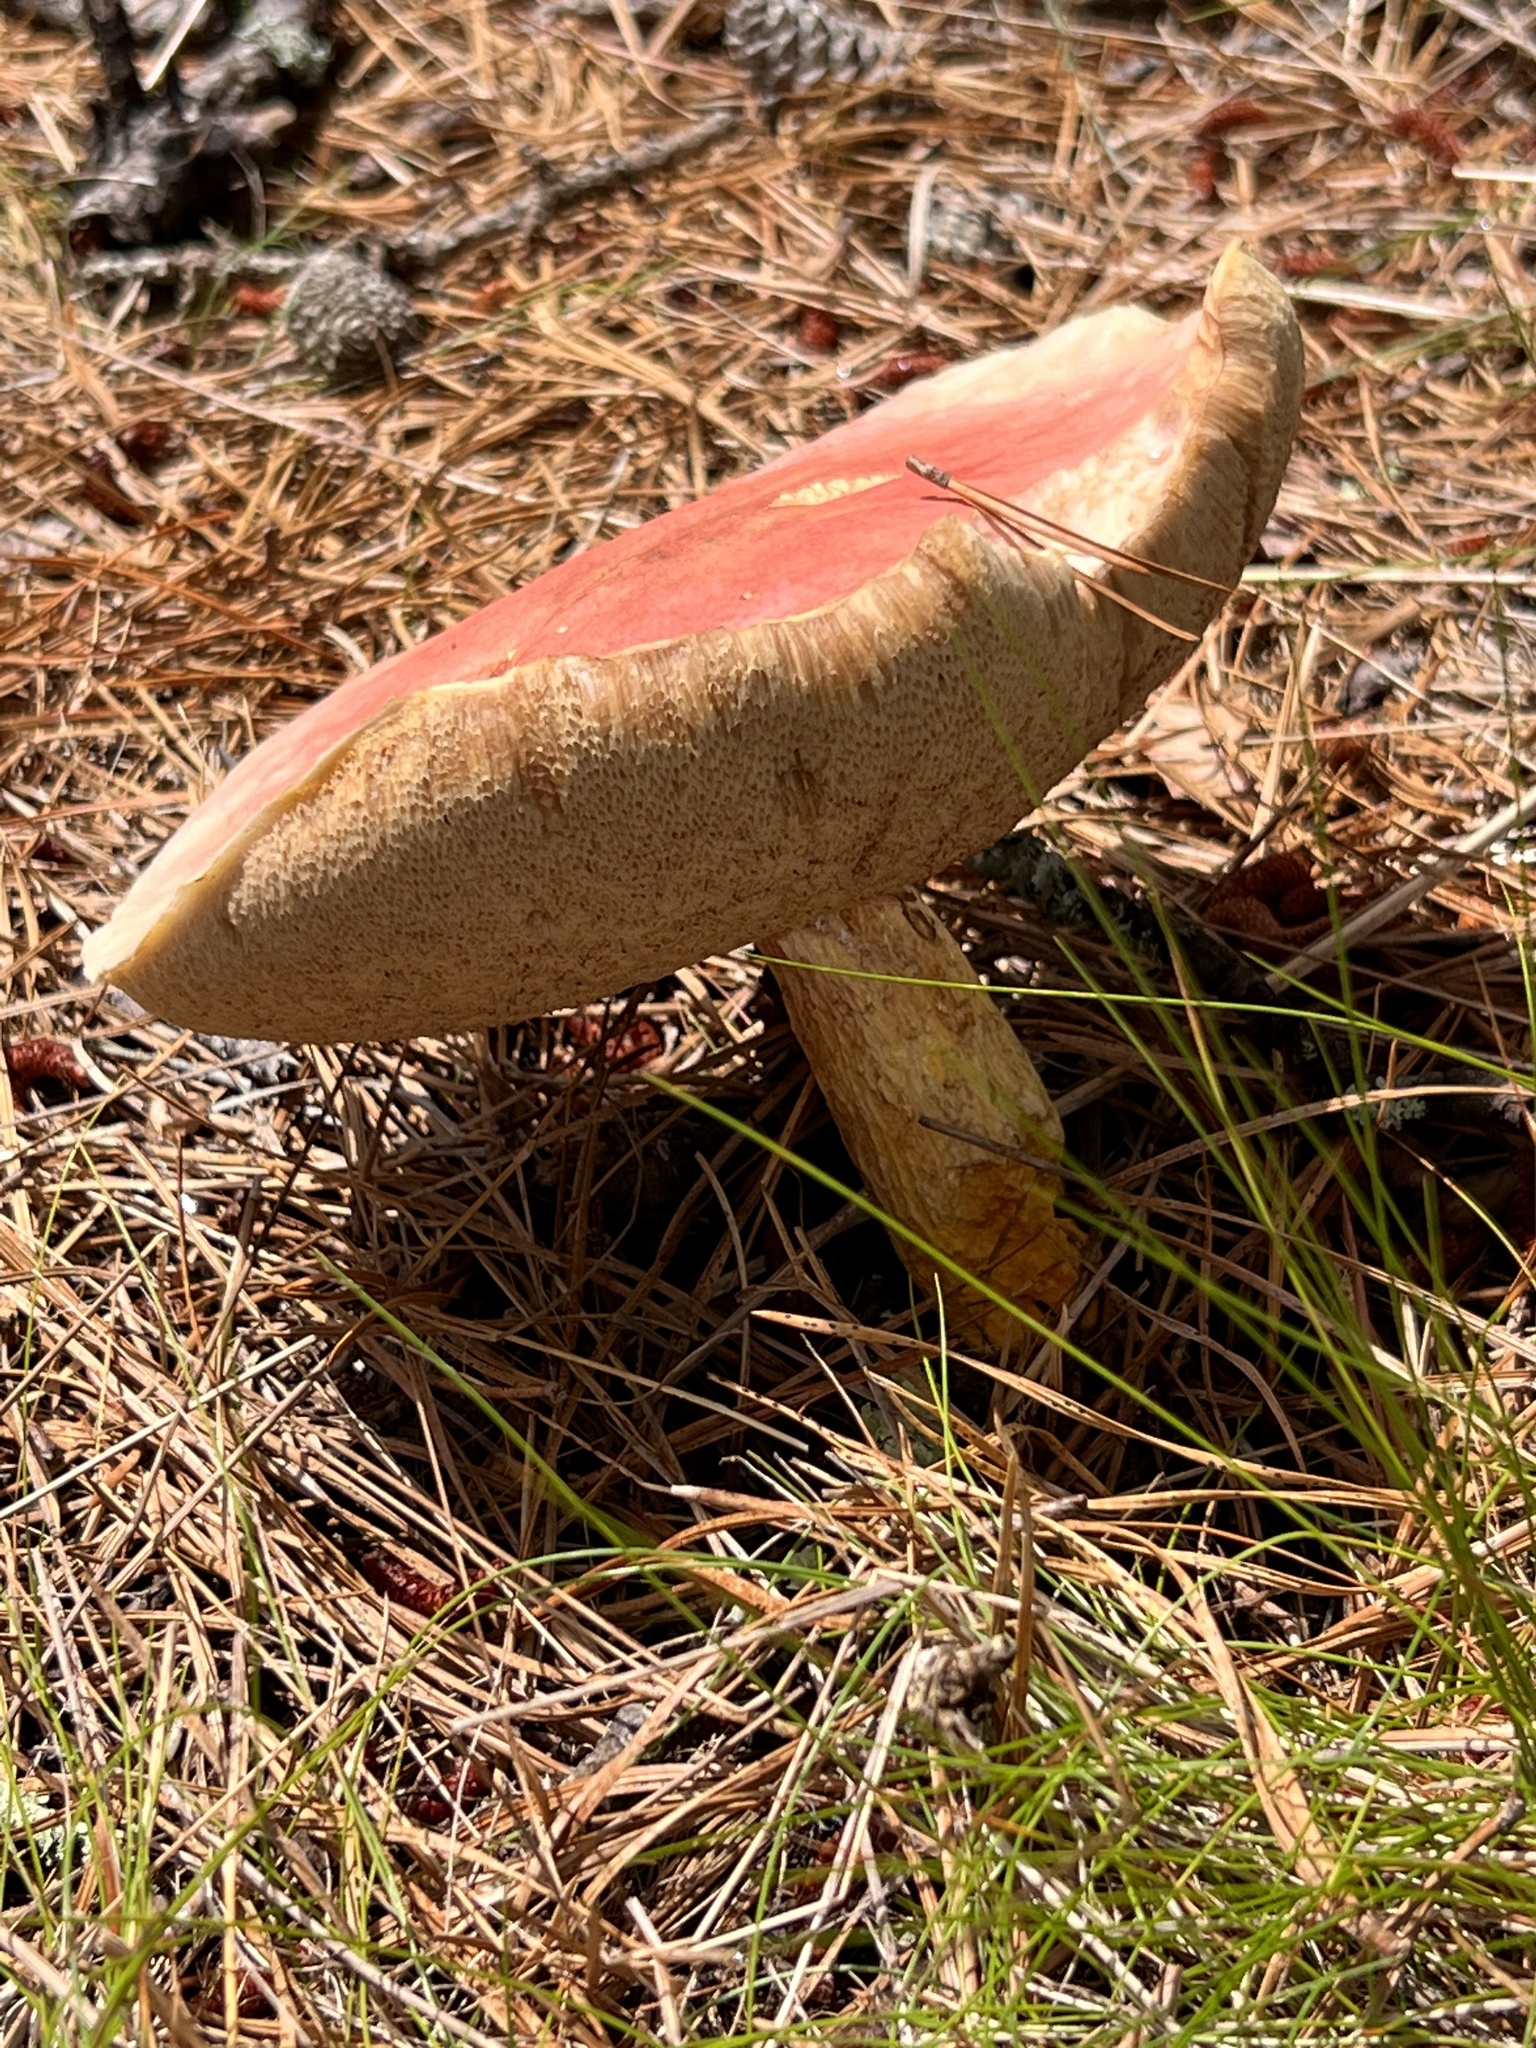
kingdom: Fungi
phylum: Basidiomycota
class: Agaricomycetes
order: Boletales
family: Boletaceae
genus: Harrya
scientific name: Harrya chromipes
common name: Chrome-footed bolete
